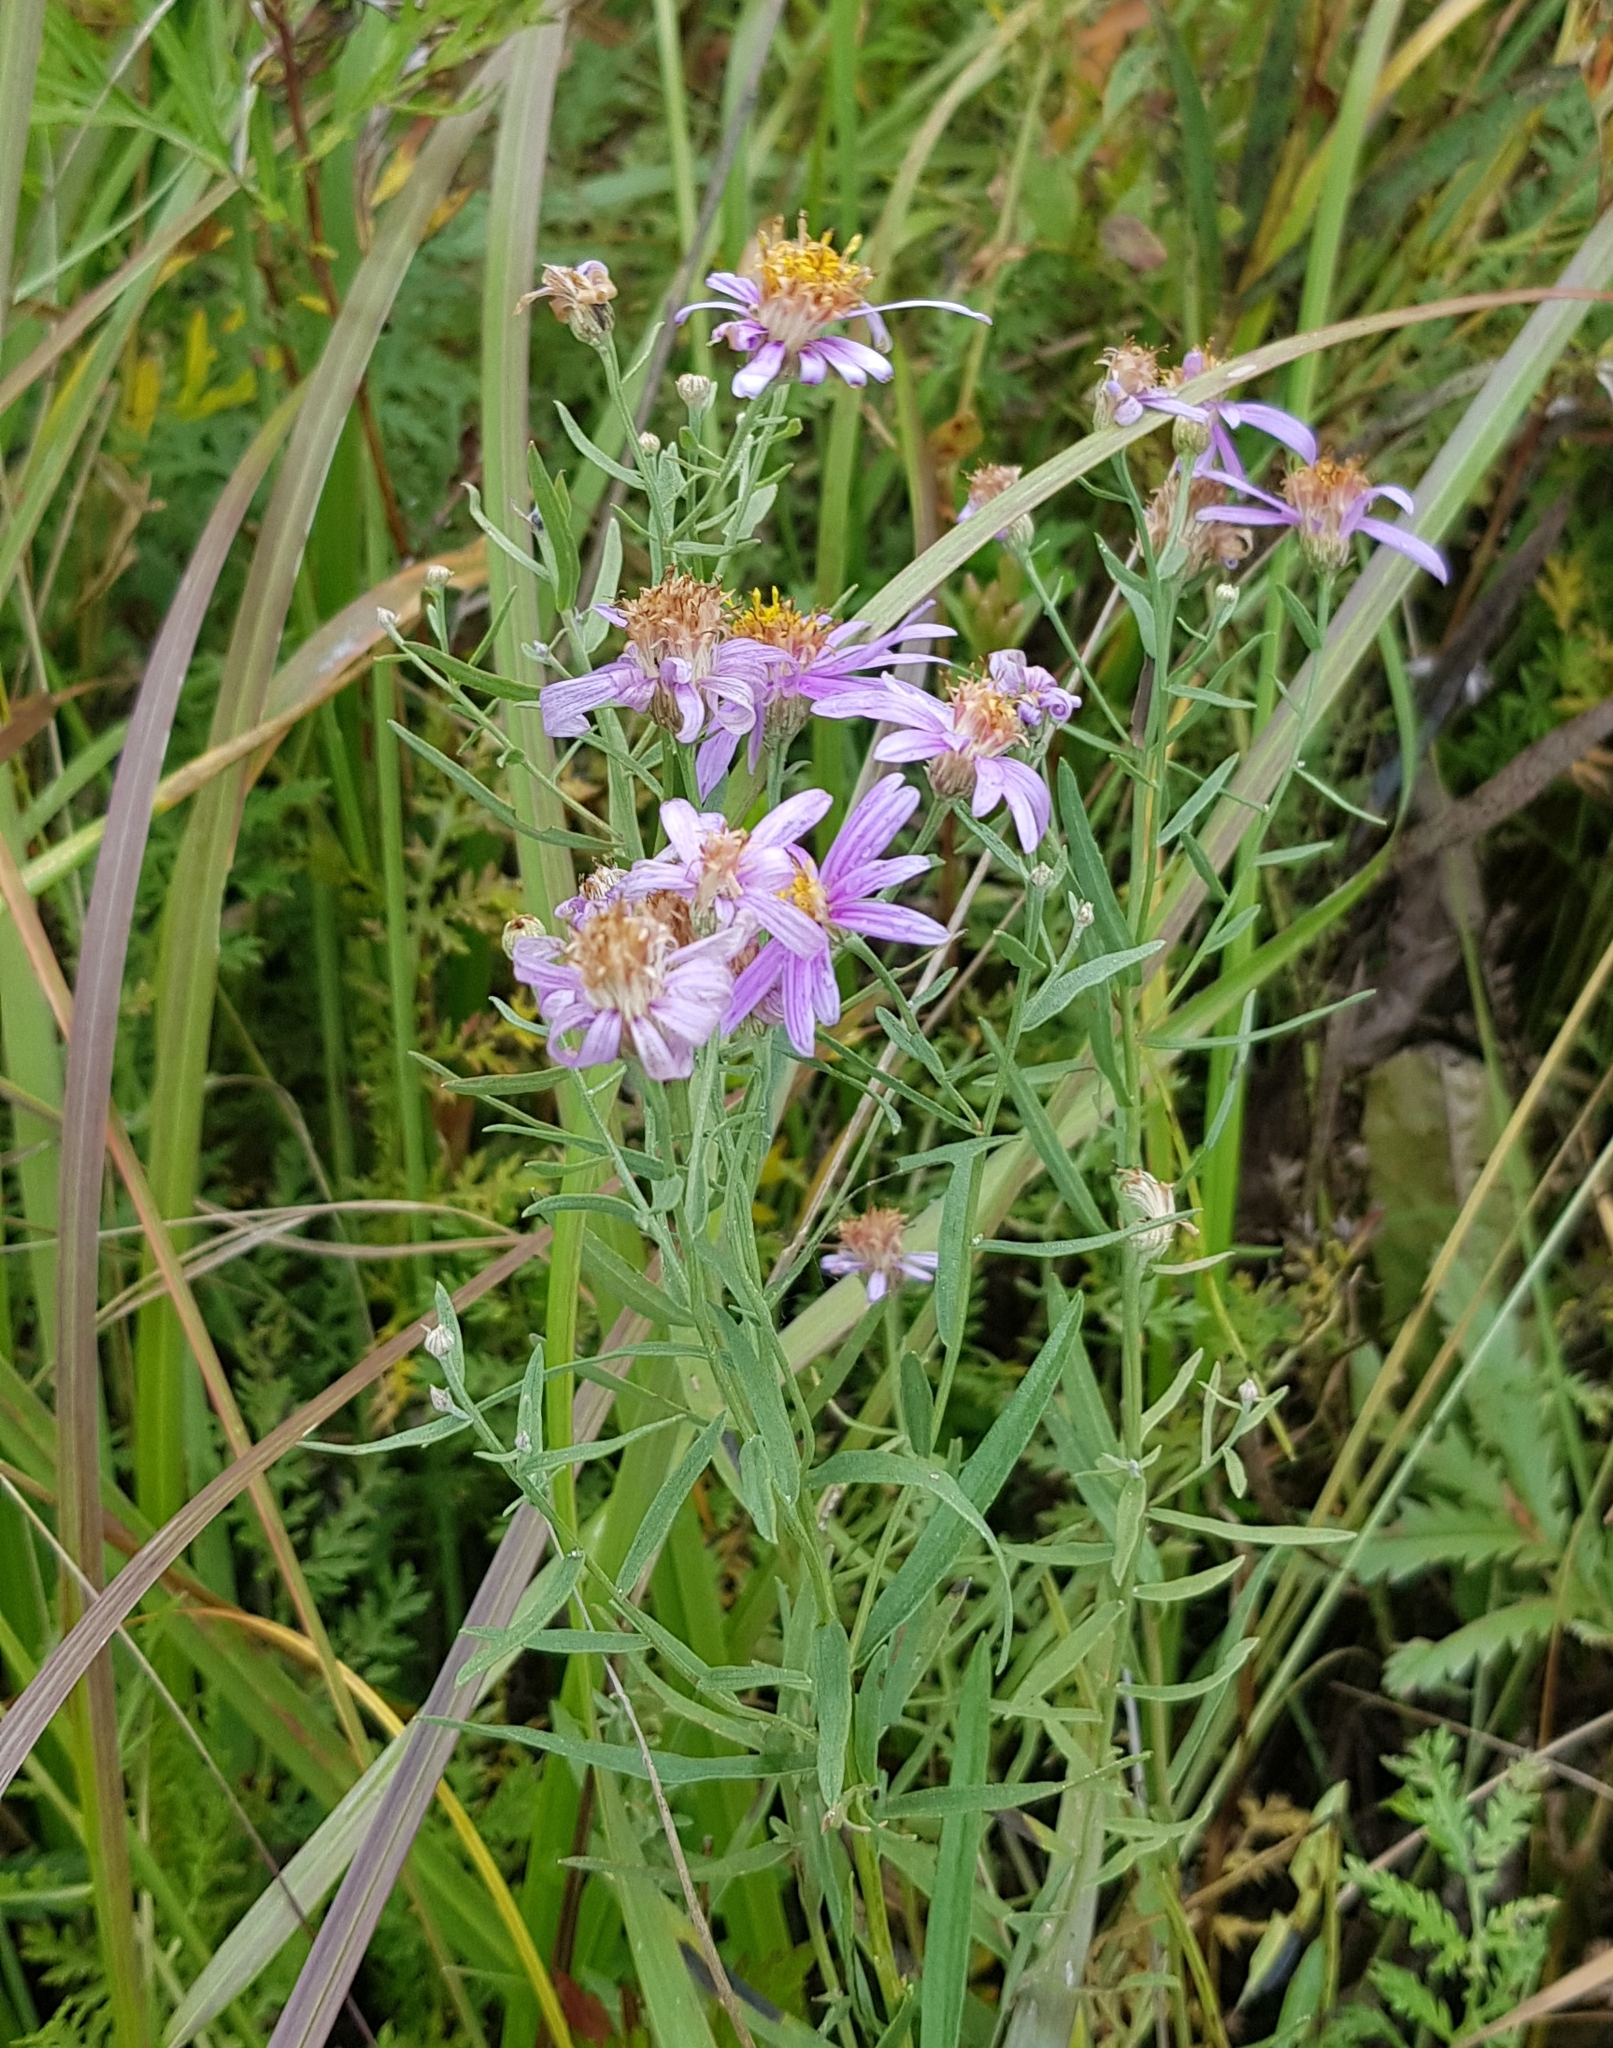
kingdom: Plantae
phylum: Tracheophyta
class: Magnoliopsida
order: Asterales
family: Asteraceae
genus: Galatella
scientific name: Galatella dahurica
